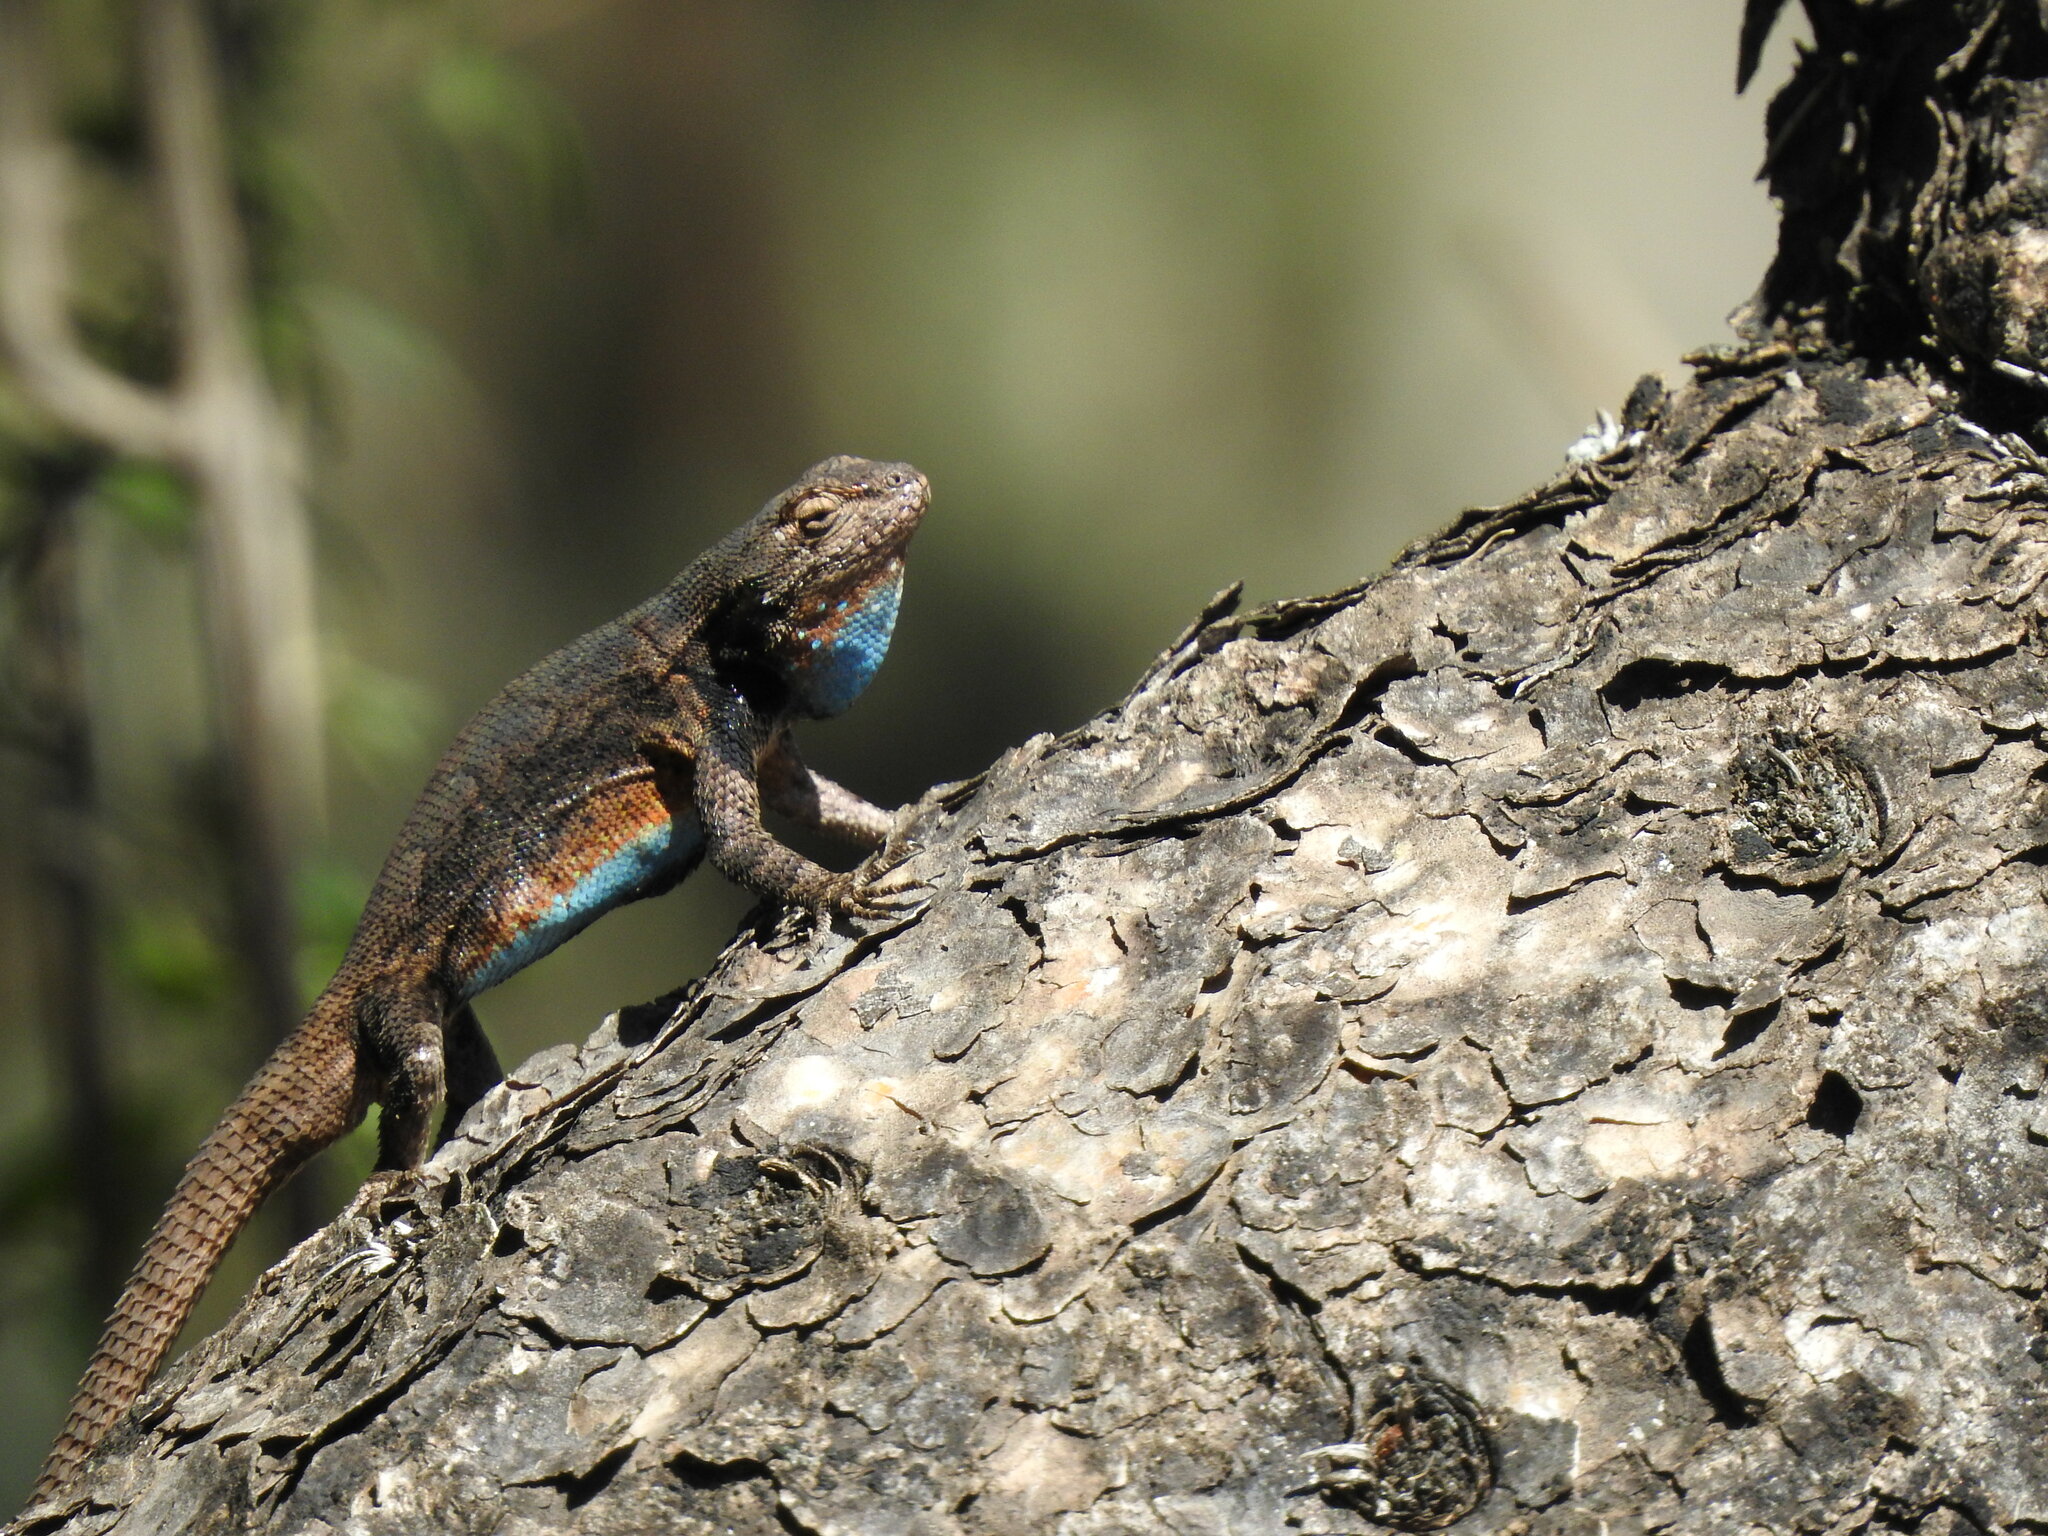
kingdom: Animalia
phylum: Chordata
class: Squamata
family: Phrynosomatidae
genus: Sceloporus
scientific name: Sceloporus grammicus
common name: Mesquite lizard
